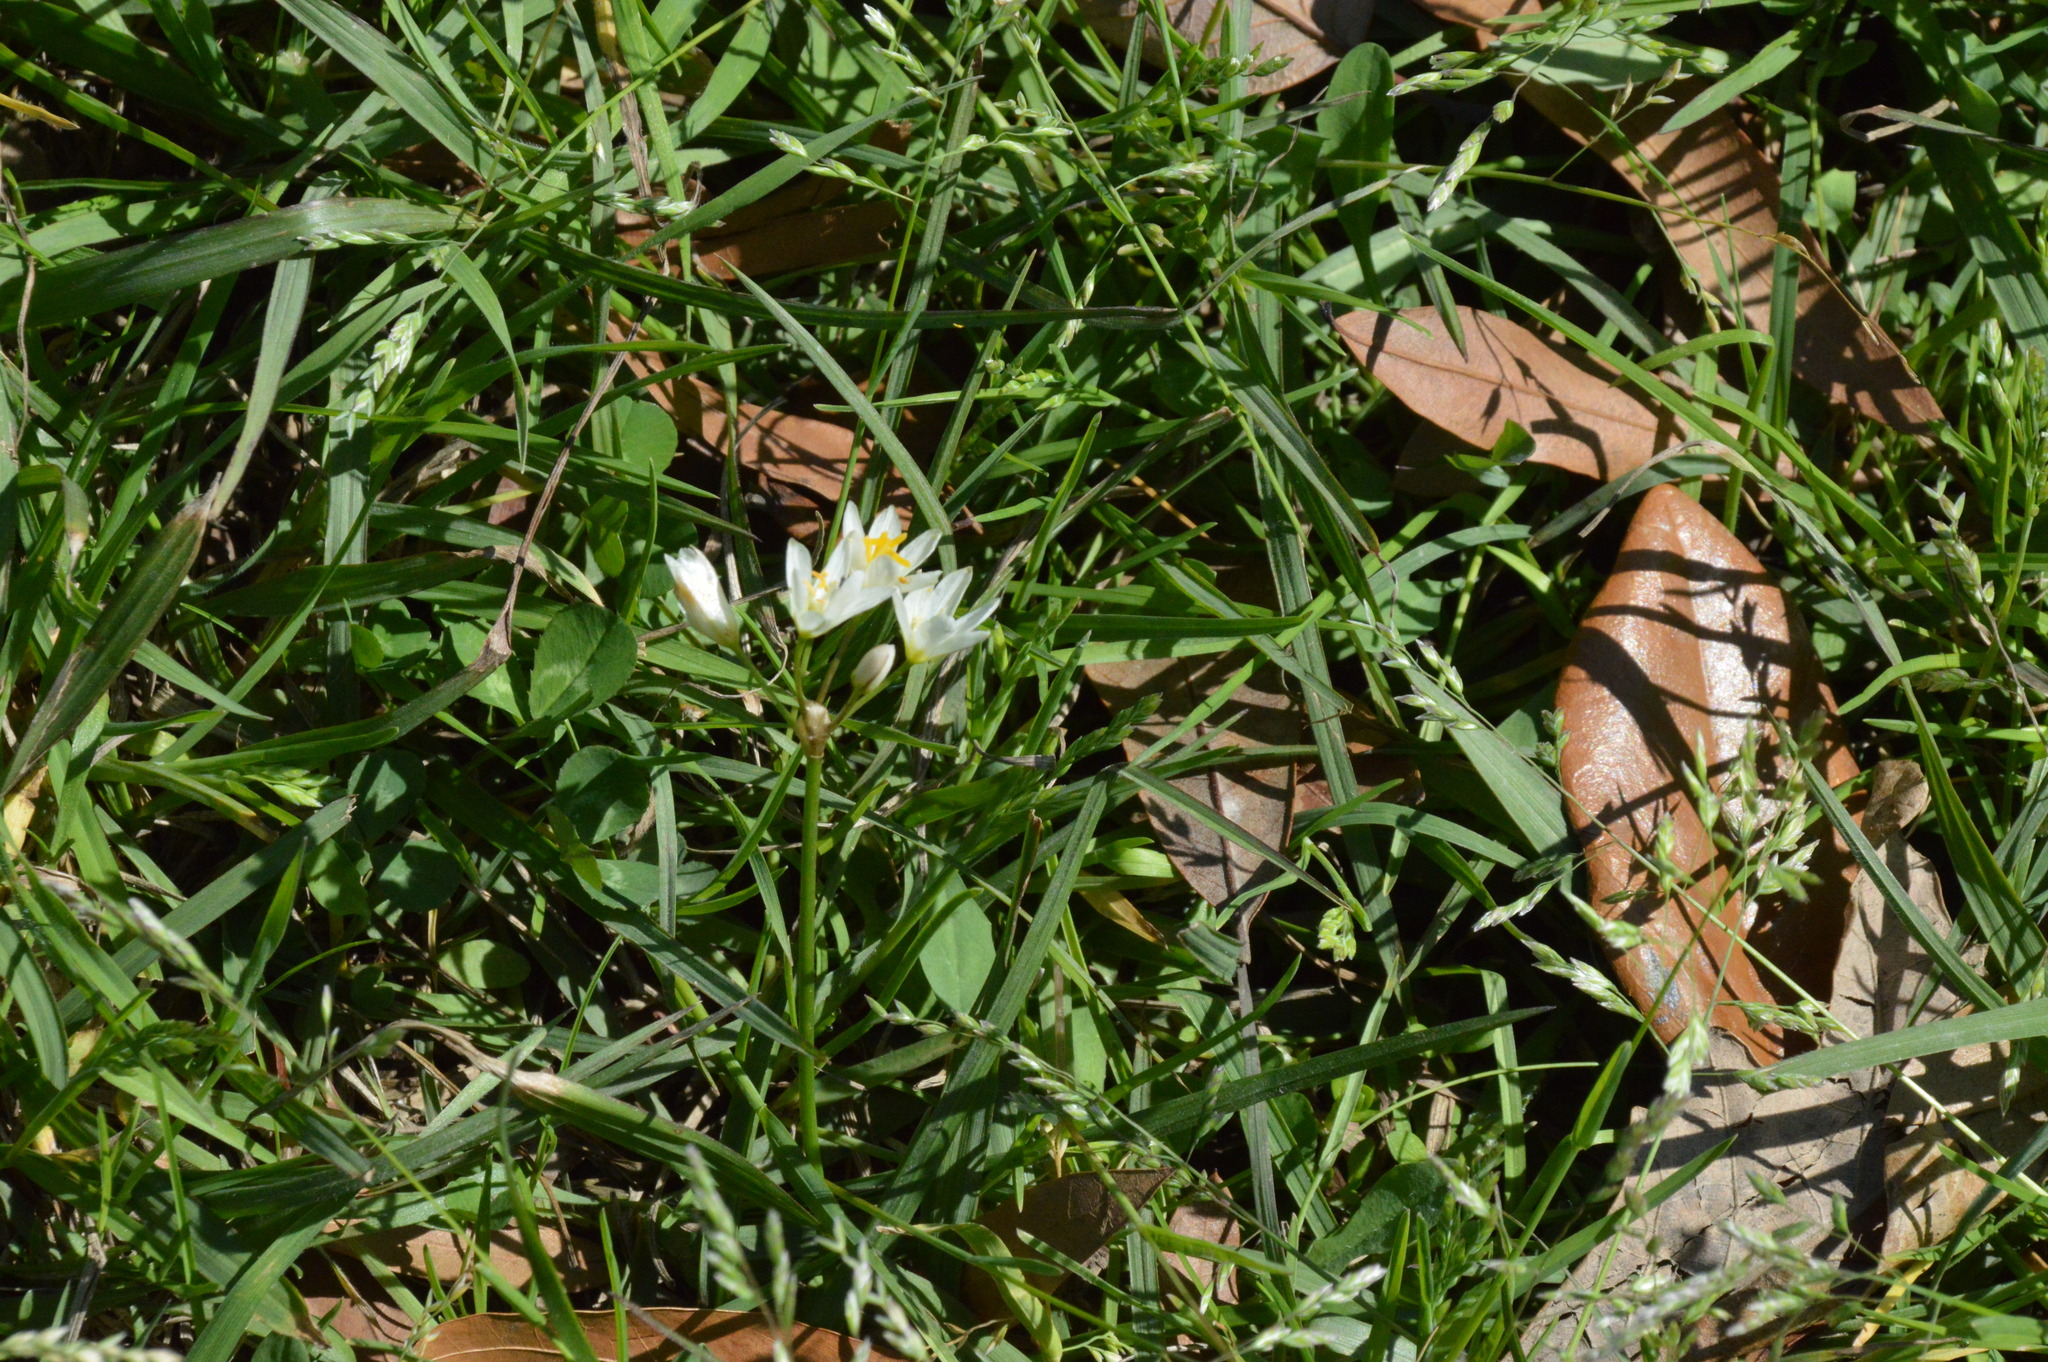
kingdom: Plantae
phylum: Tracheophyta
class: Liliopsida
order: Asparagales
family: Amaryllidaceae
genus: Nothoscordum
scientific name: Nothoscordum bivalve
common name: Crow-poison
